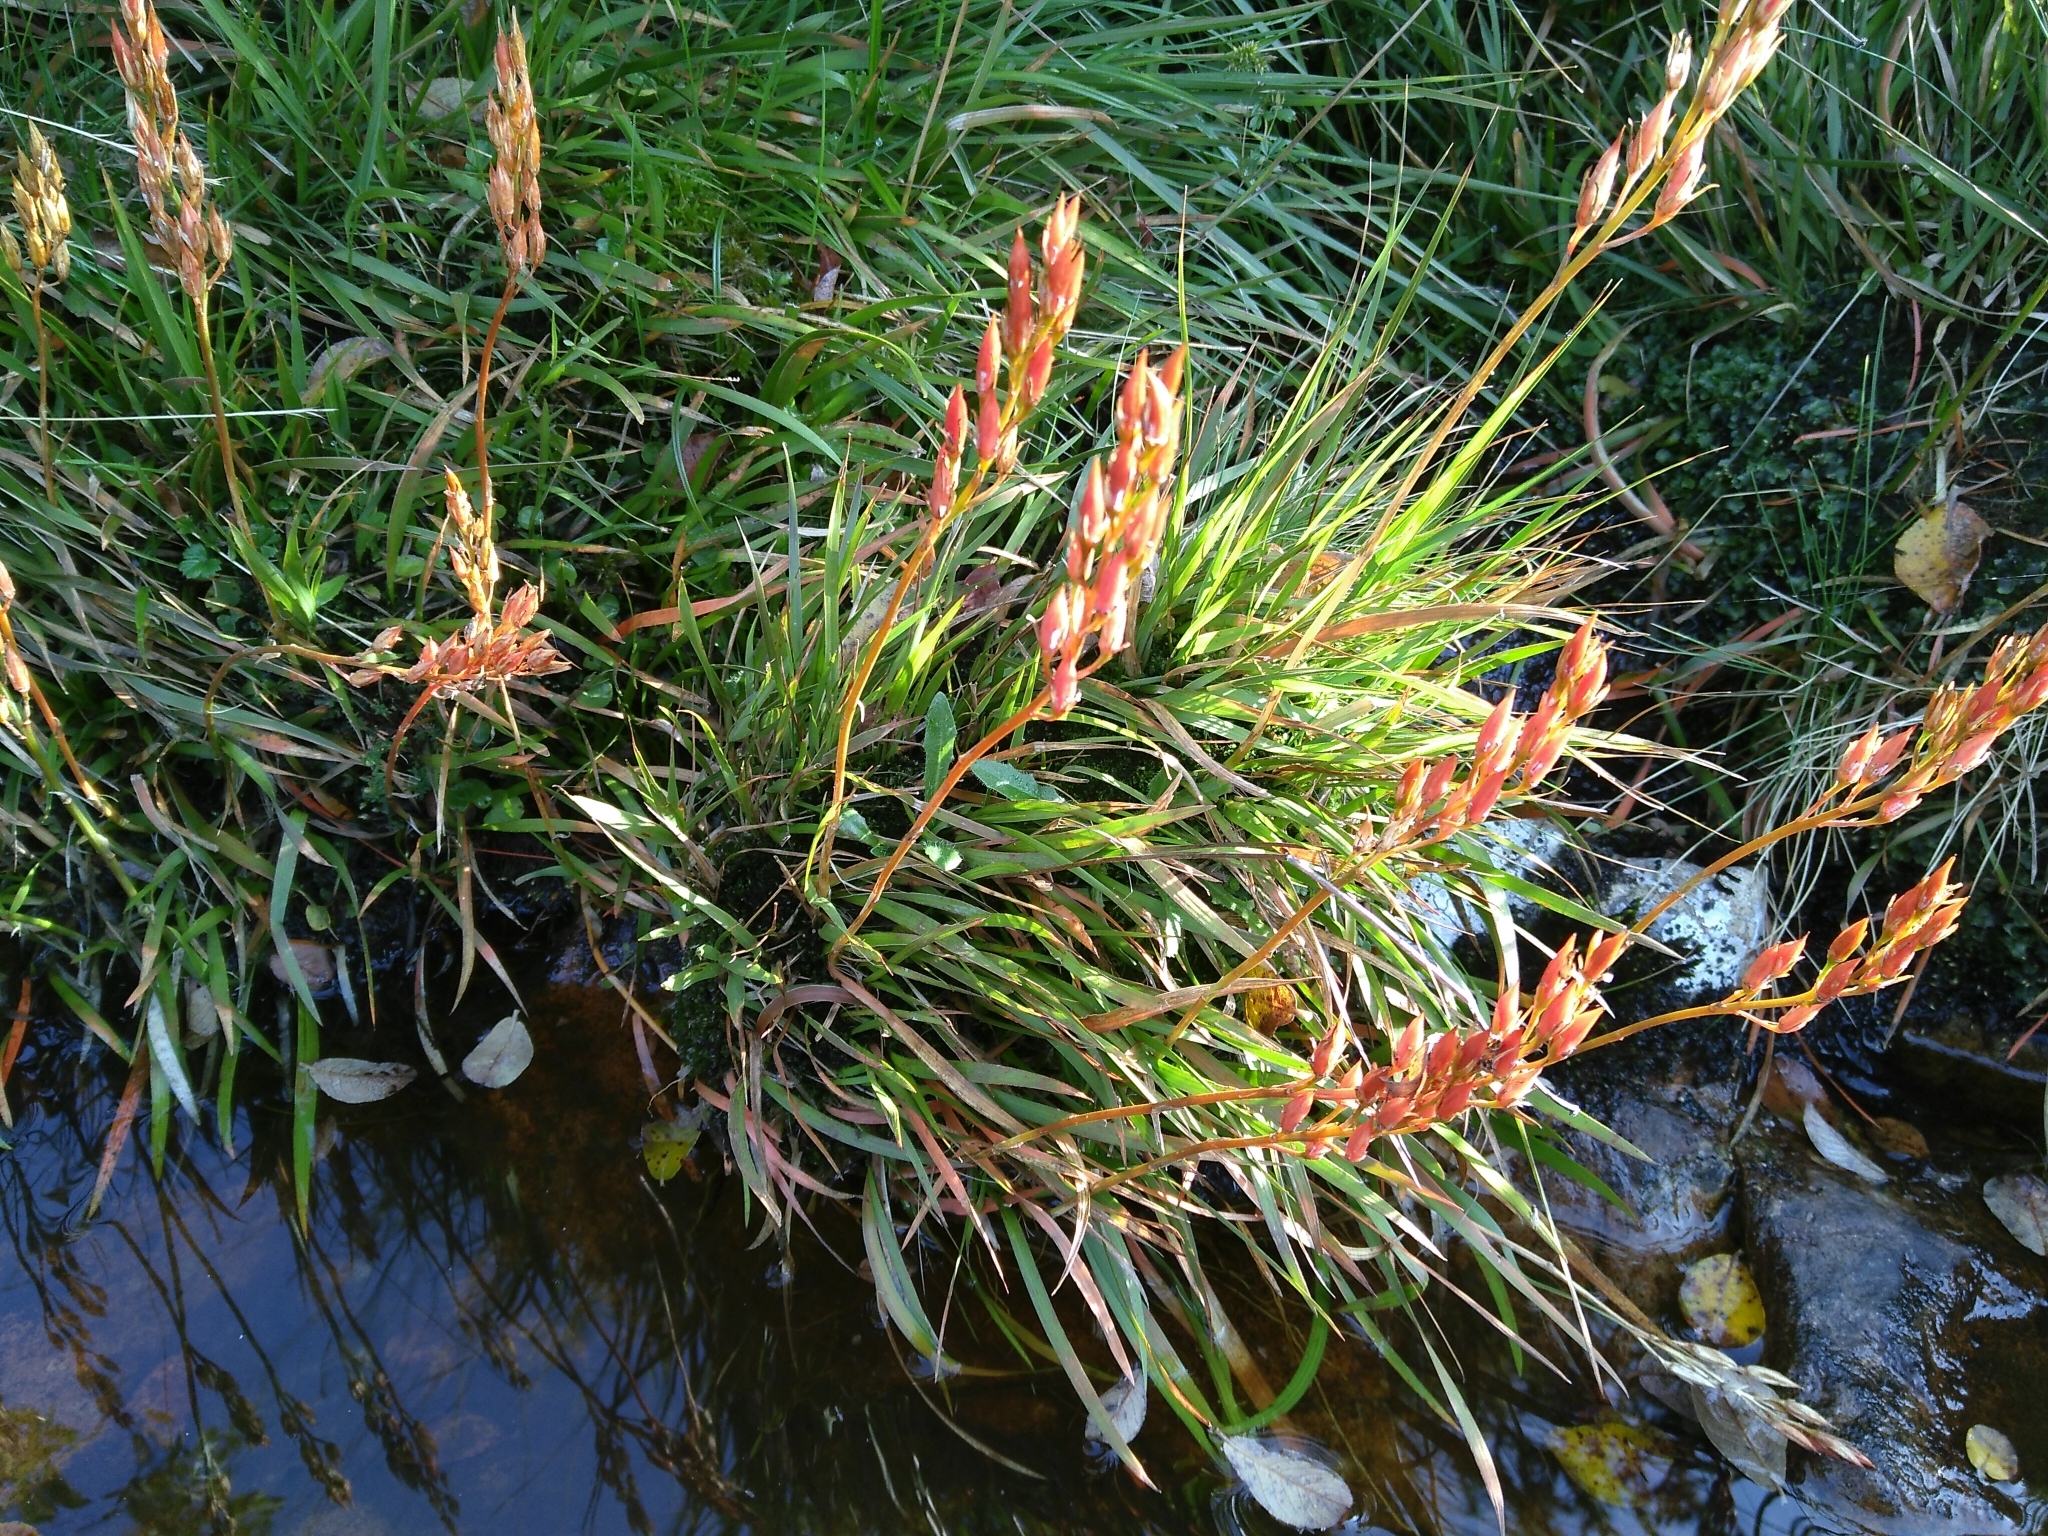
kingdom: Plantae
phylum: Tracheophyta
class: Liliopsida
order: Dioscoreales
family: Nartheciaceae
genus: Narthecium
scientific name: Narthecium ossifragum
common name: Bog asphodel
